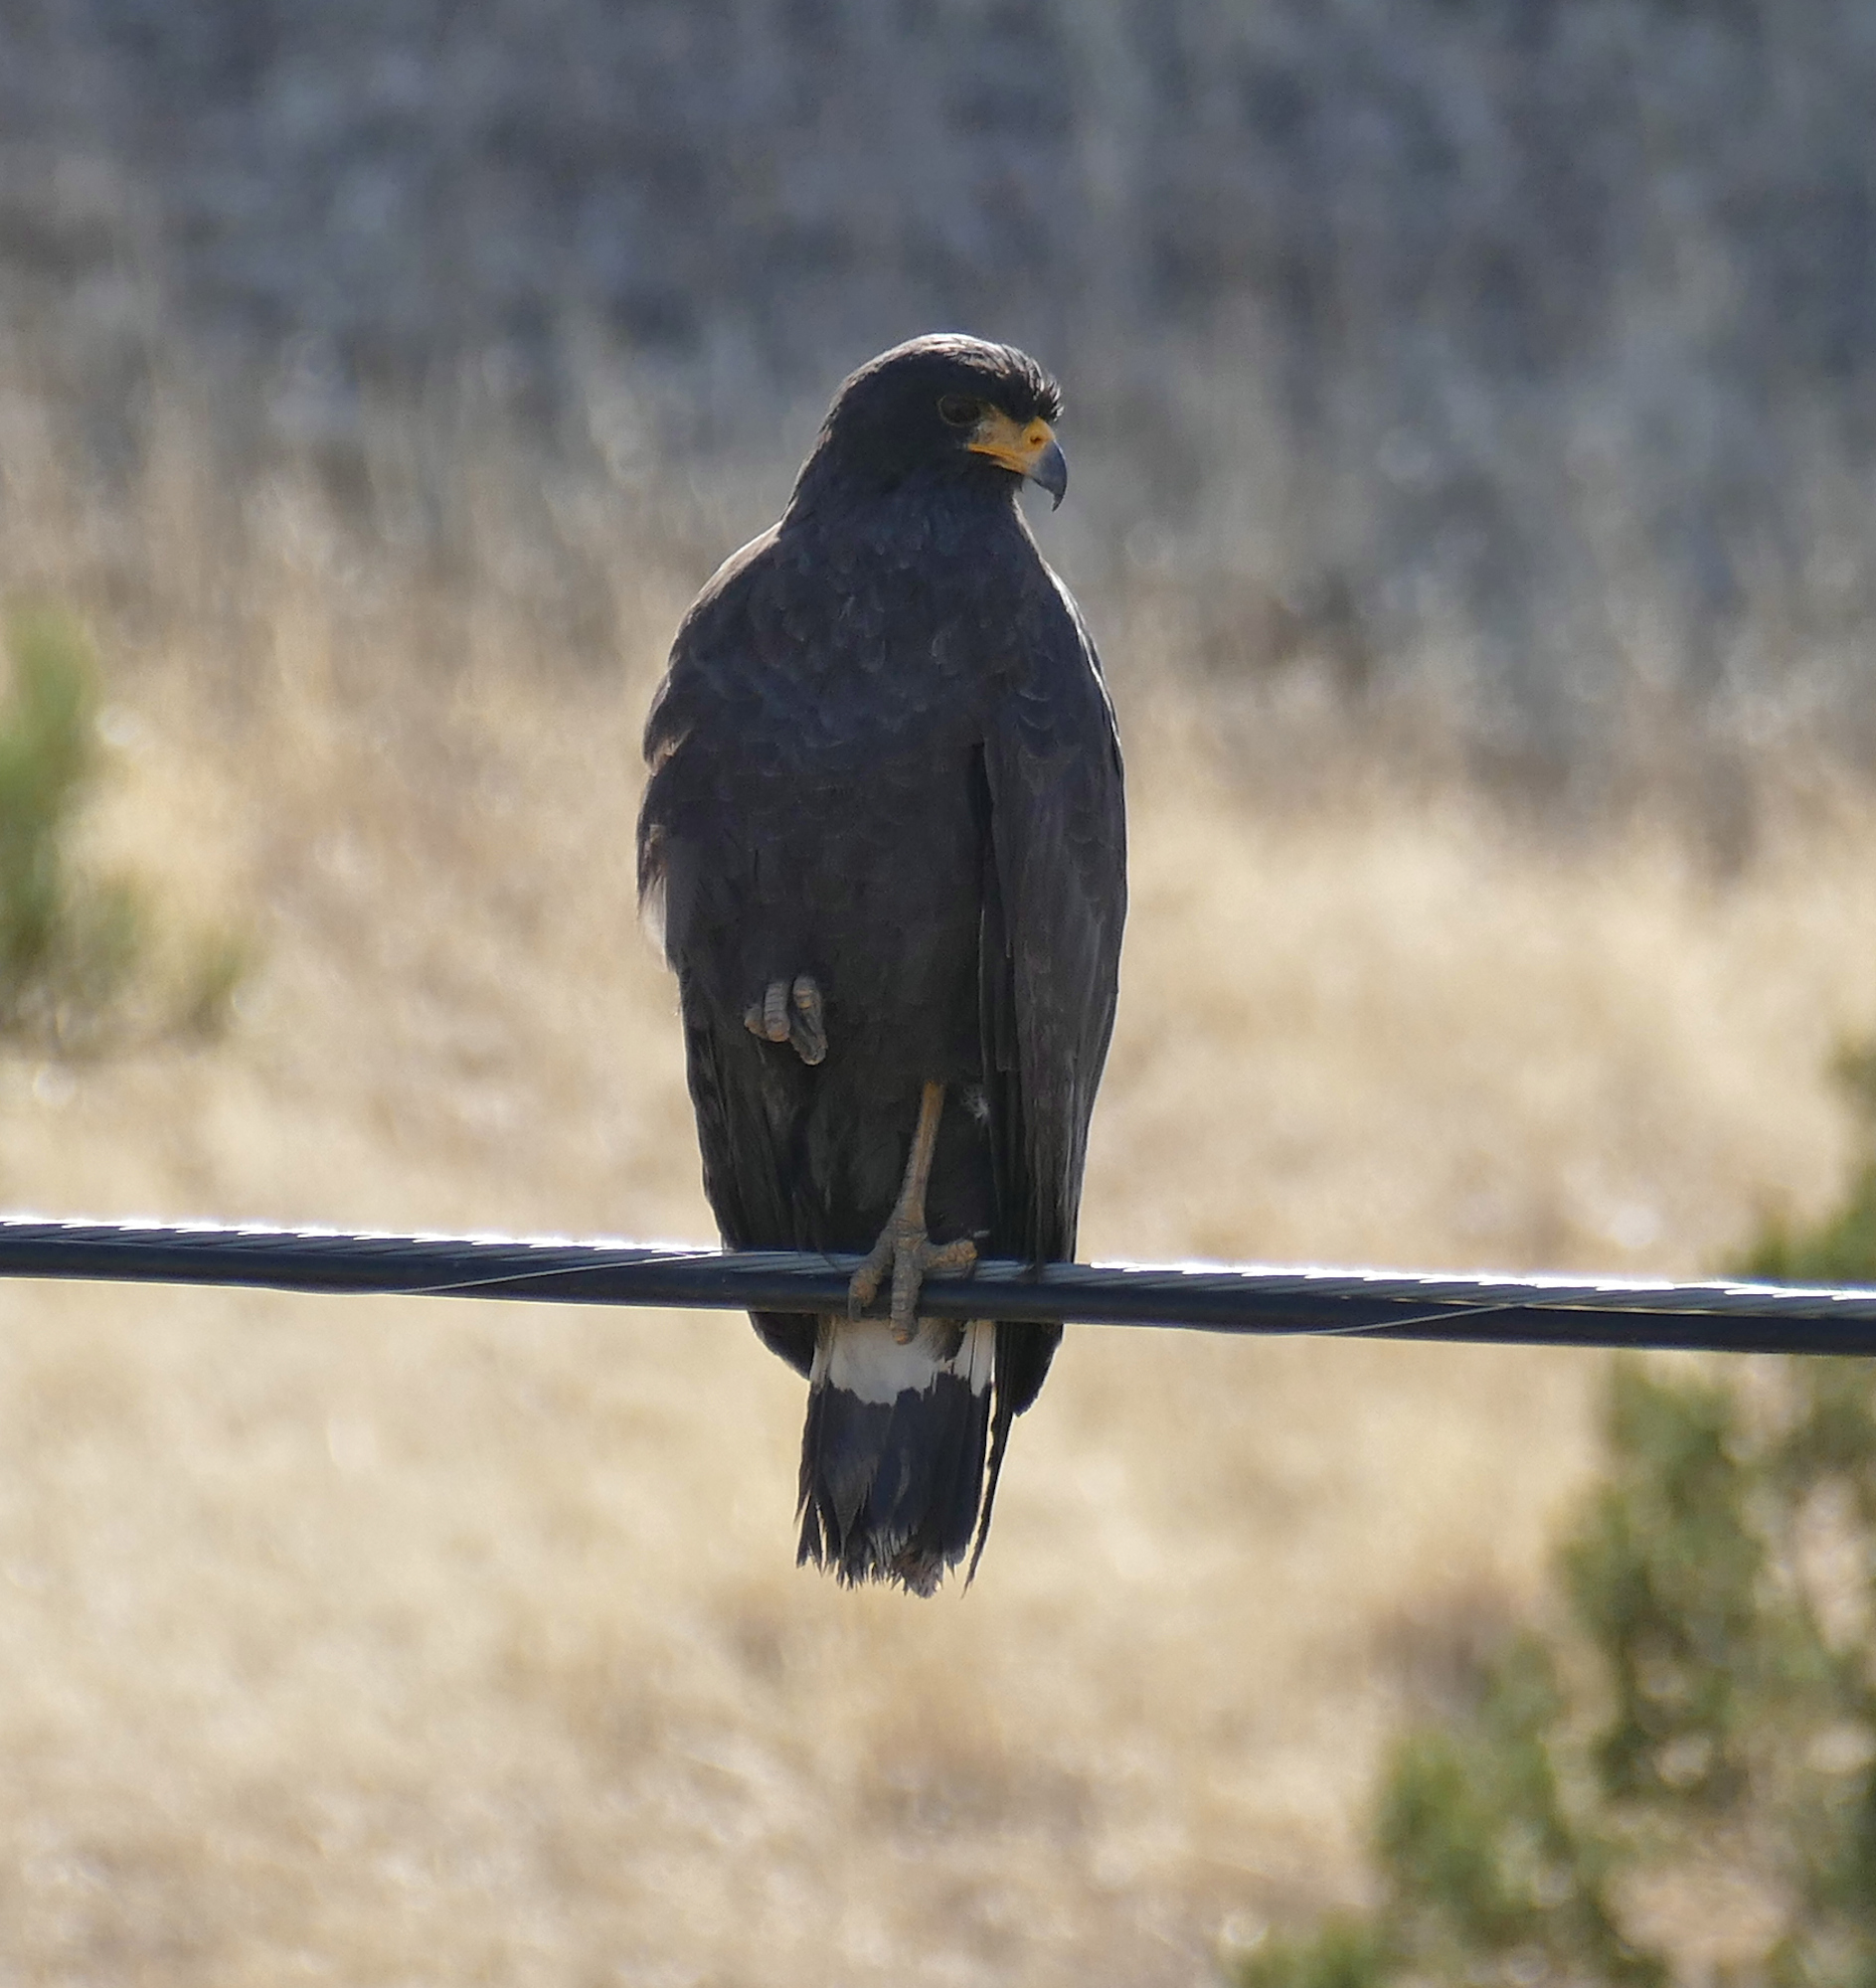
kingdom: Animalia
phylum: Chordata
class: Aves
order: Accipitriformes
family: Accipitridae
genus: Buteogallus
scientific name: Buteogallus anthracinus
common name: Common black hawk
